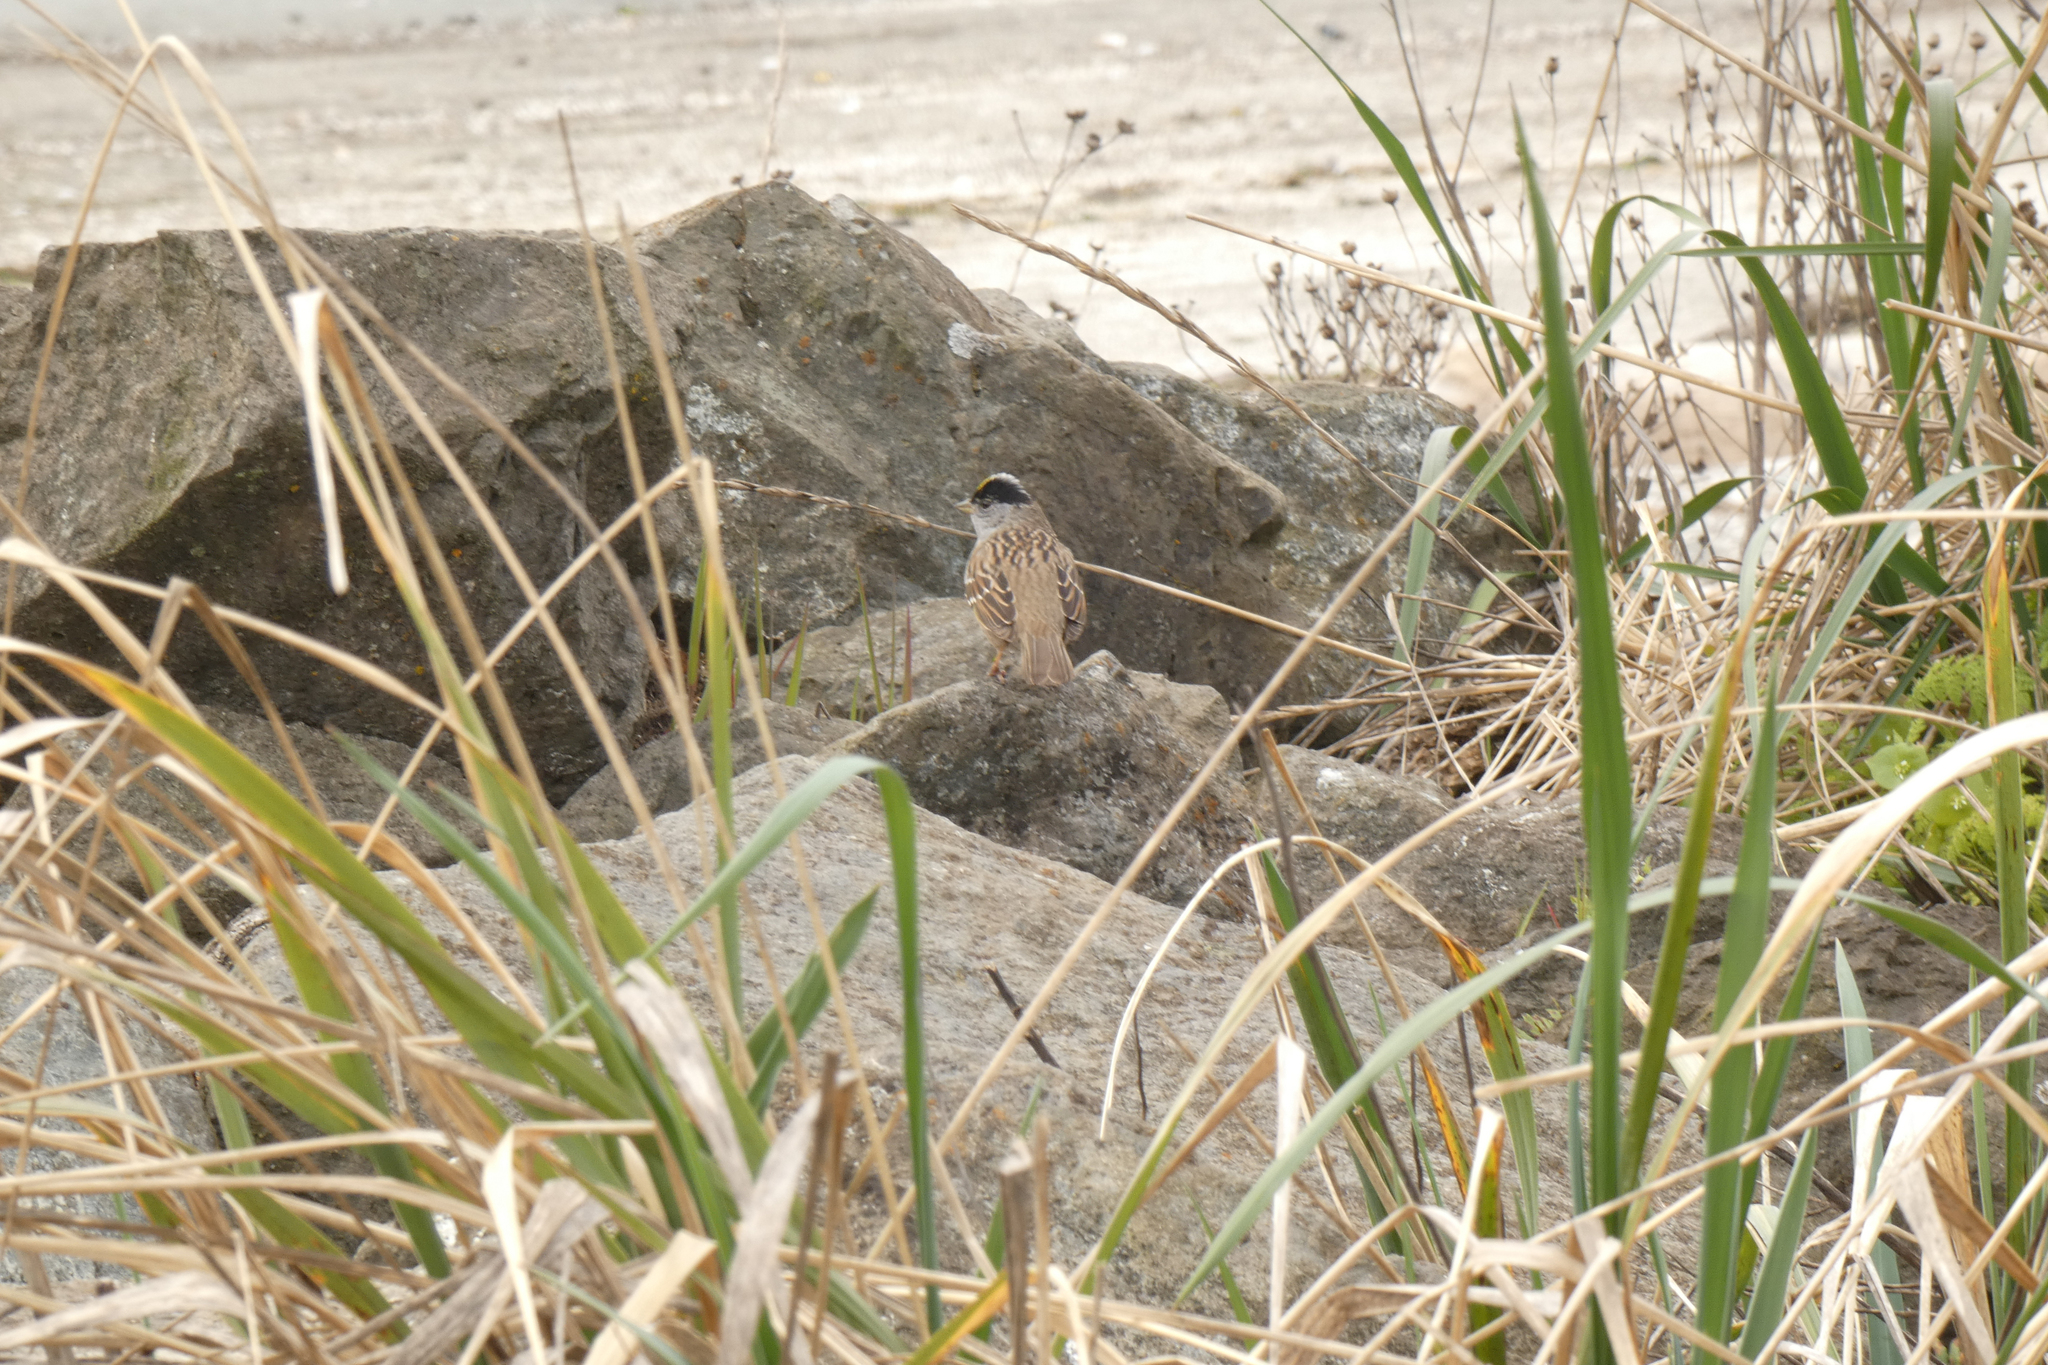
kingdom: Animalia
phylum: Chordata
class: Aves
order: Passeriformes
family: Passerellidae
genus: Zonotrichia
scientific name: Zonotrichia atricapilla
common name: Golden-crowned sparrow
